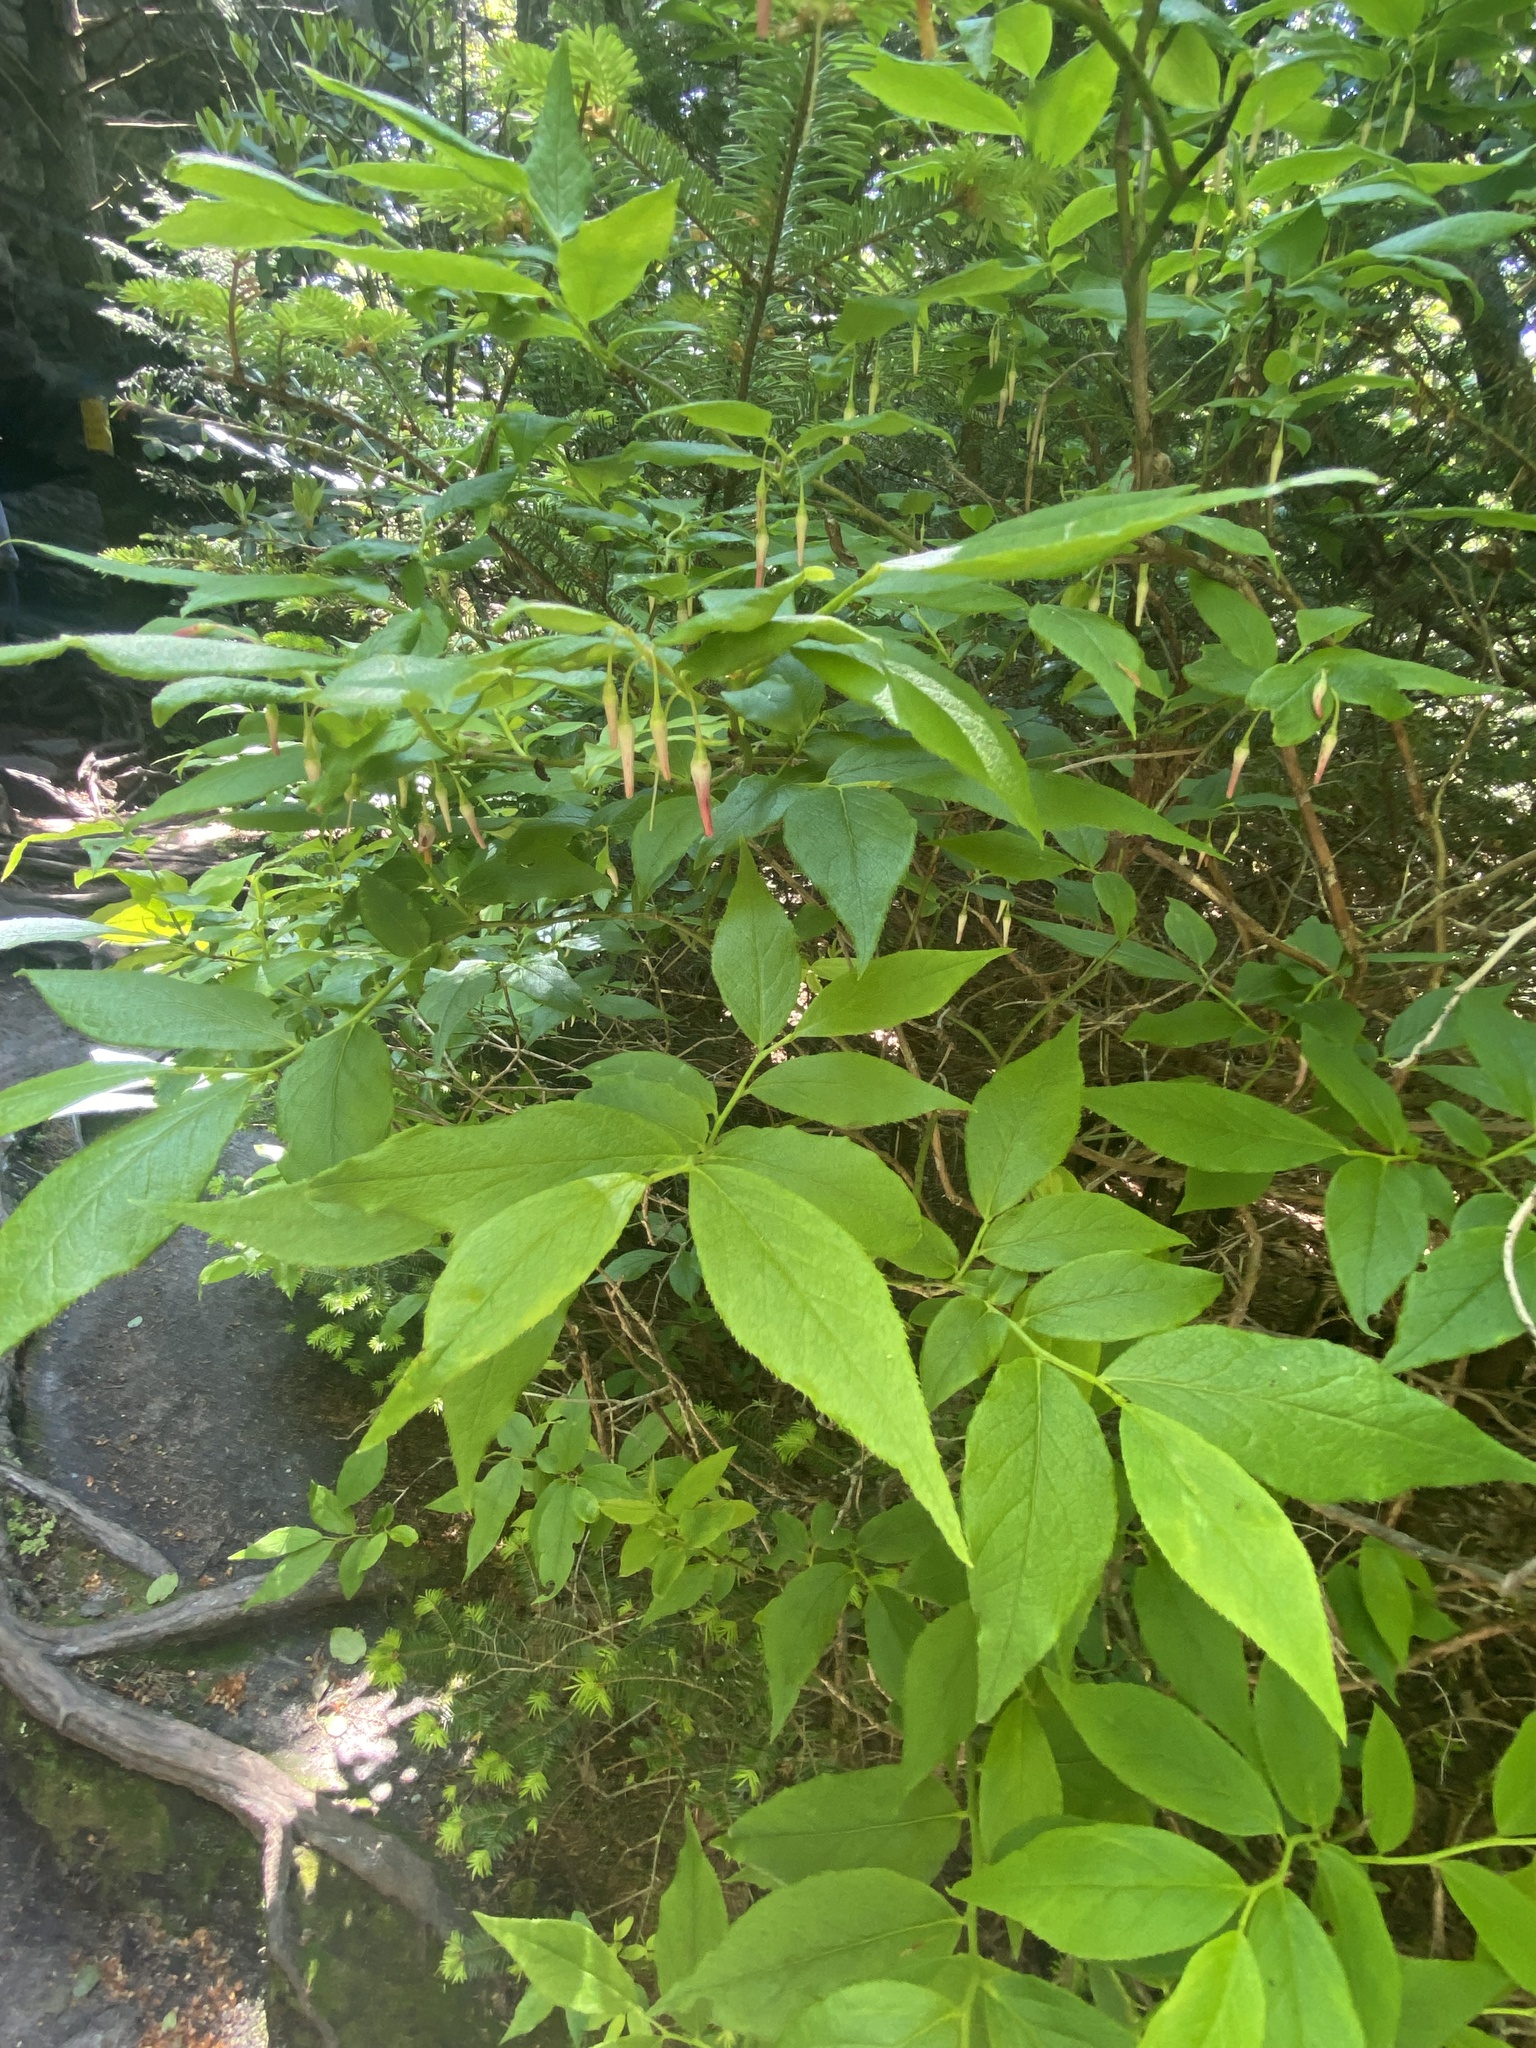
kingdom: Plantae
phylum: Tracheophyta
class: Magnoliopsida
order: Ericales
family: Ericaceae
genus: Vaccinium
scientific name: Vaccinium erythrocarpum
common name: Bearberry
